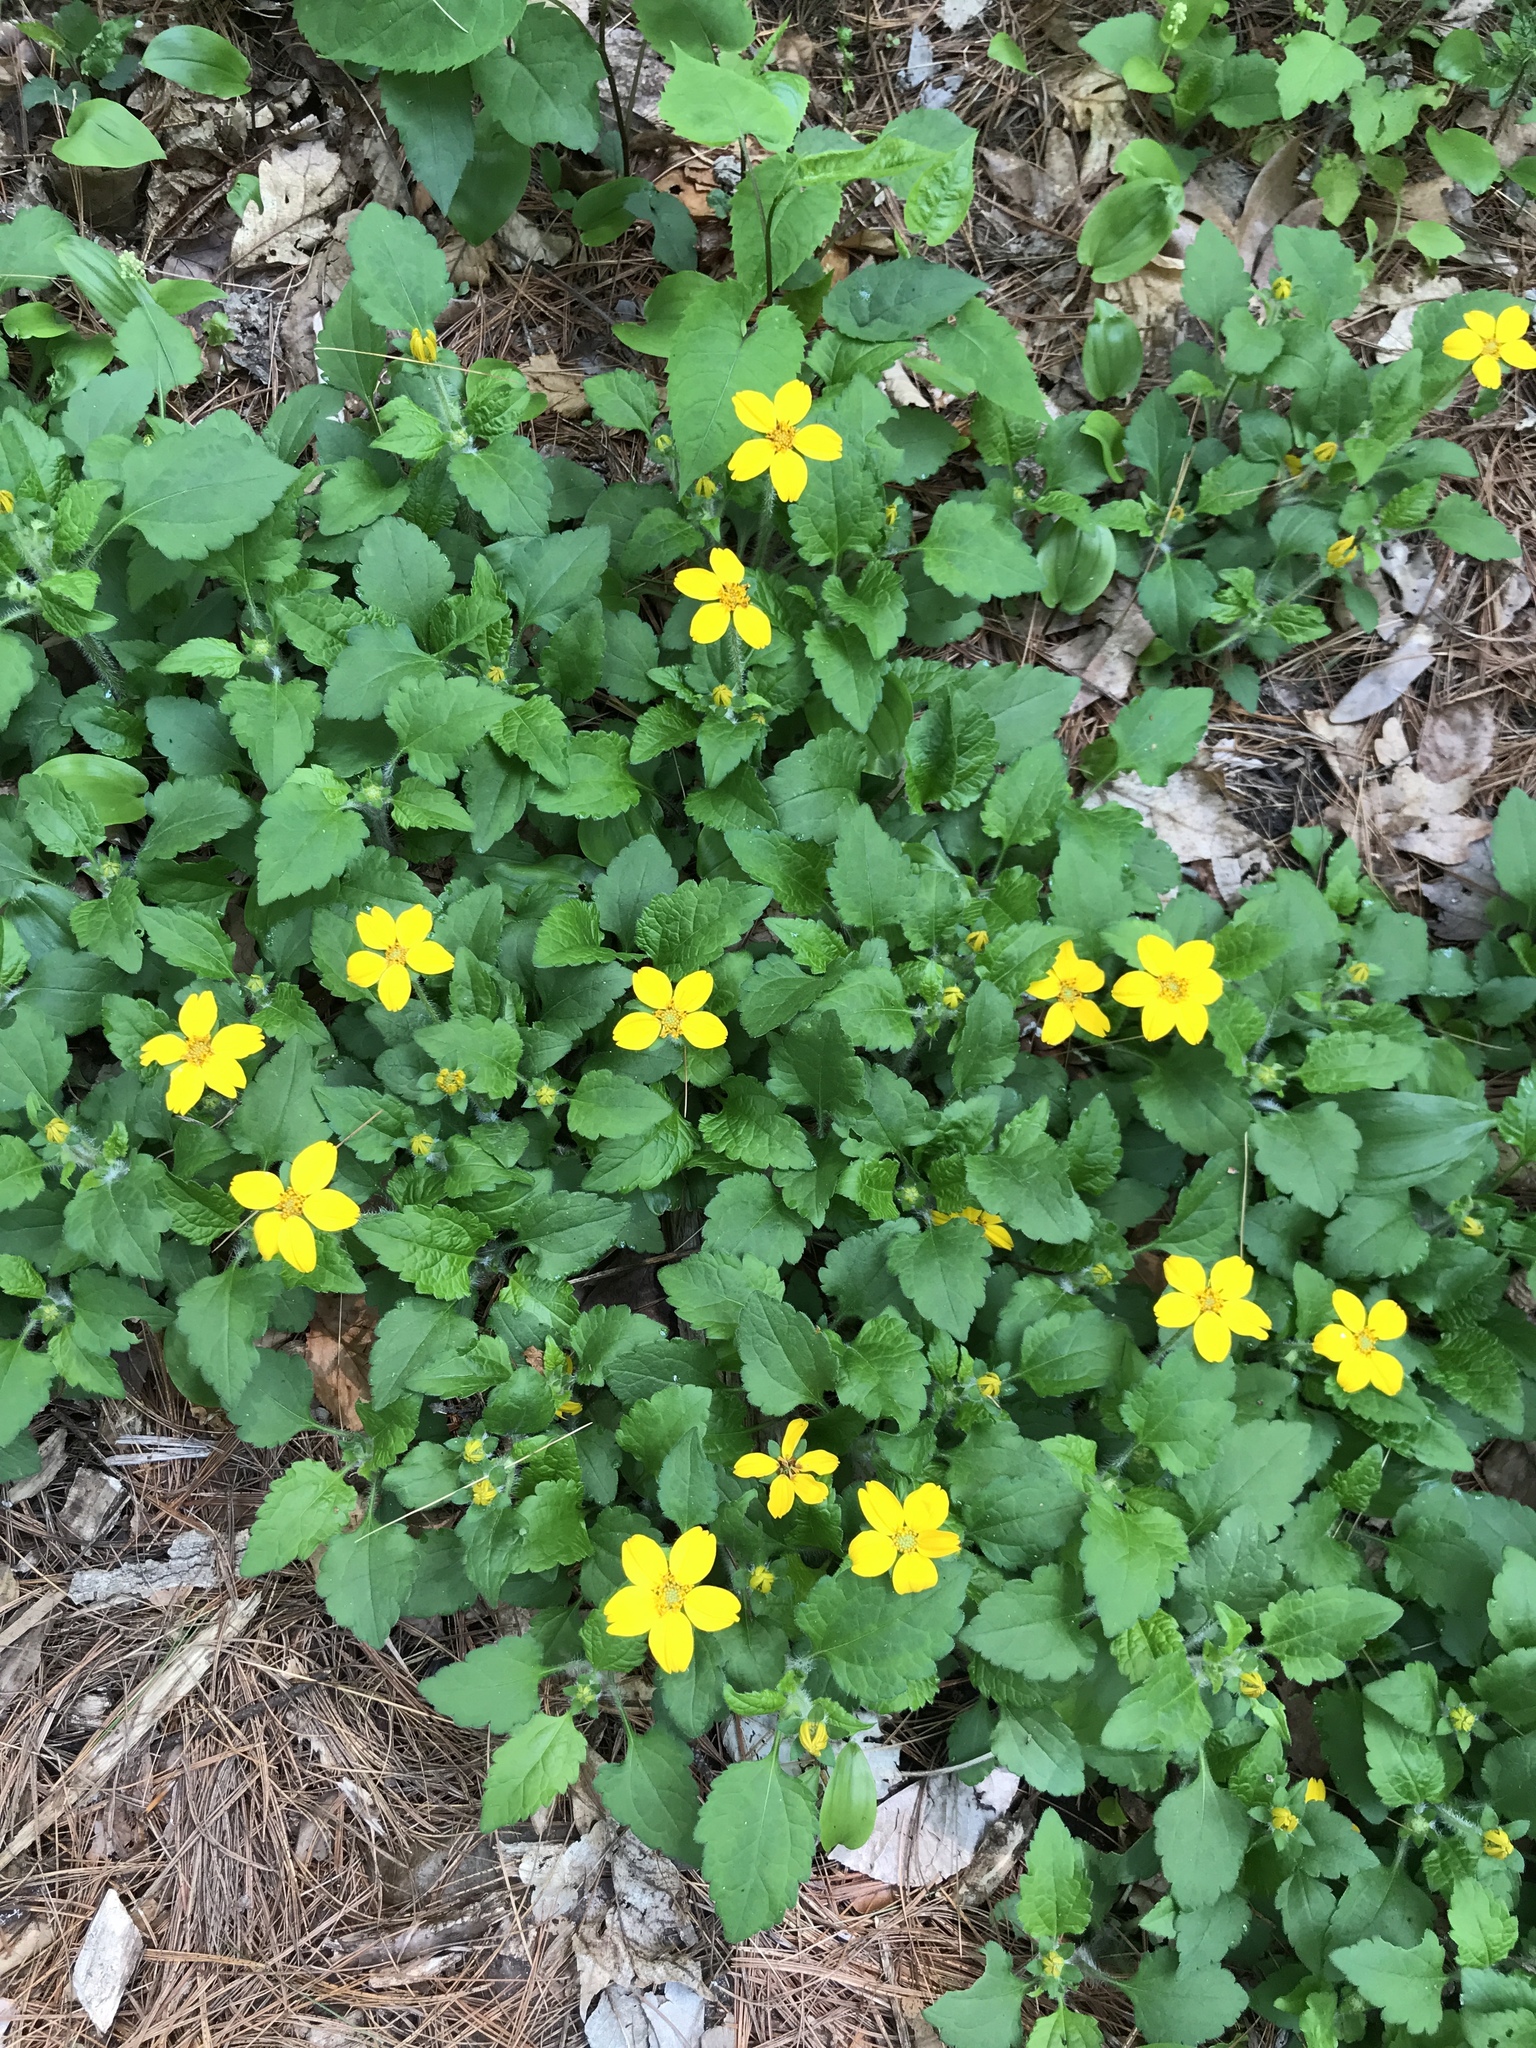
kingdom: Plantae
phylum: Tracheophyta
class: Magnoliopsida
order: Asterales
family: Asteraceae
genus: Chrysogonum
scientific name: Chrysogonum virginianum
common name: Golden-knee
